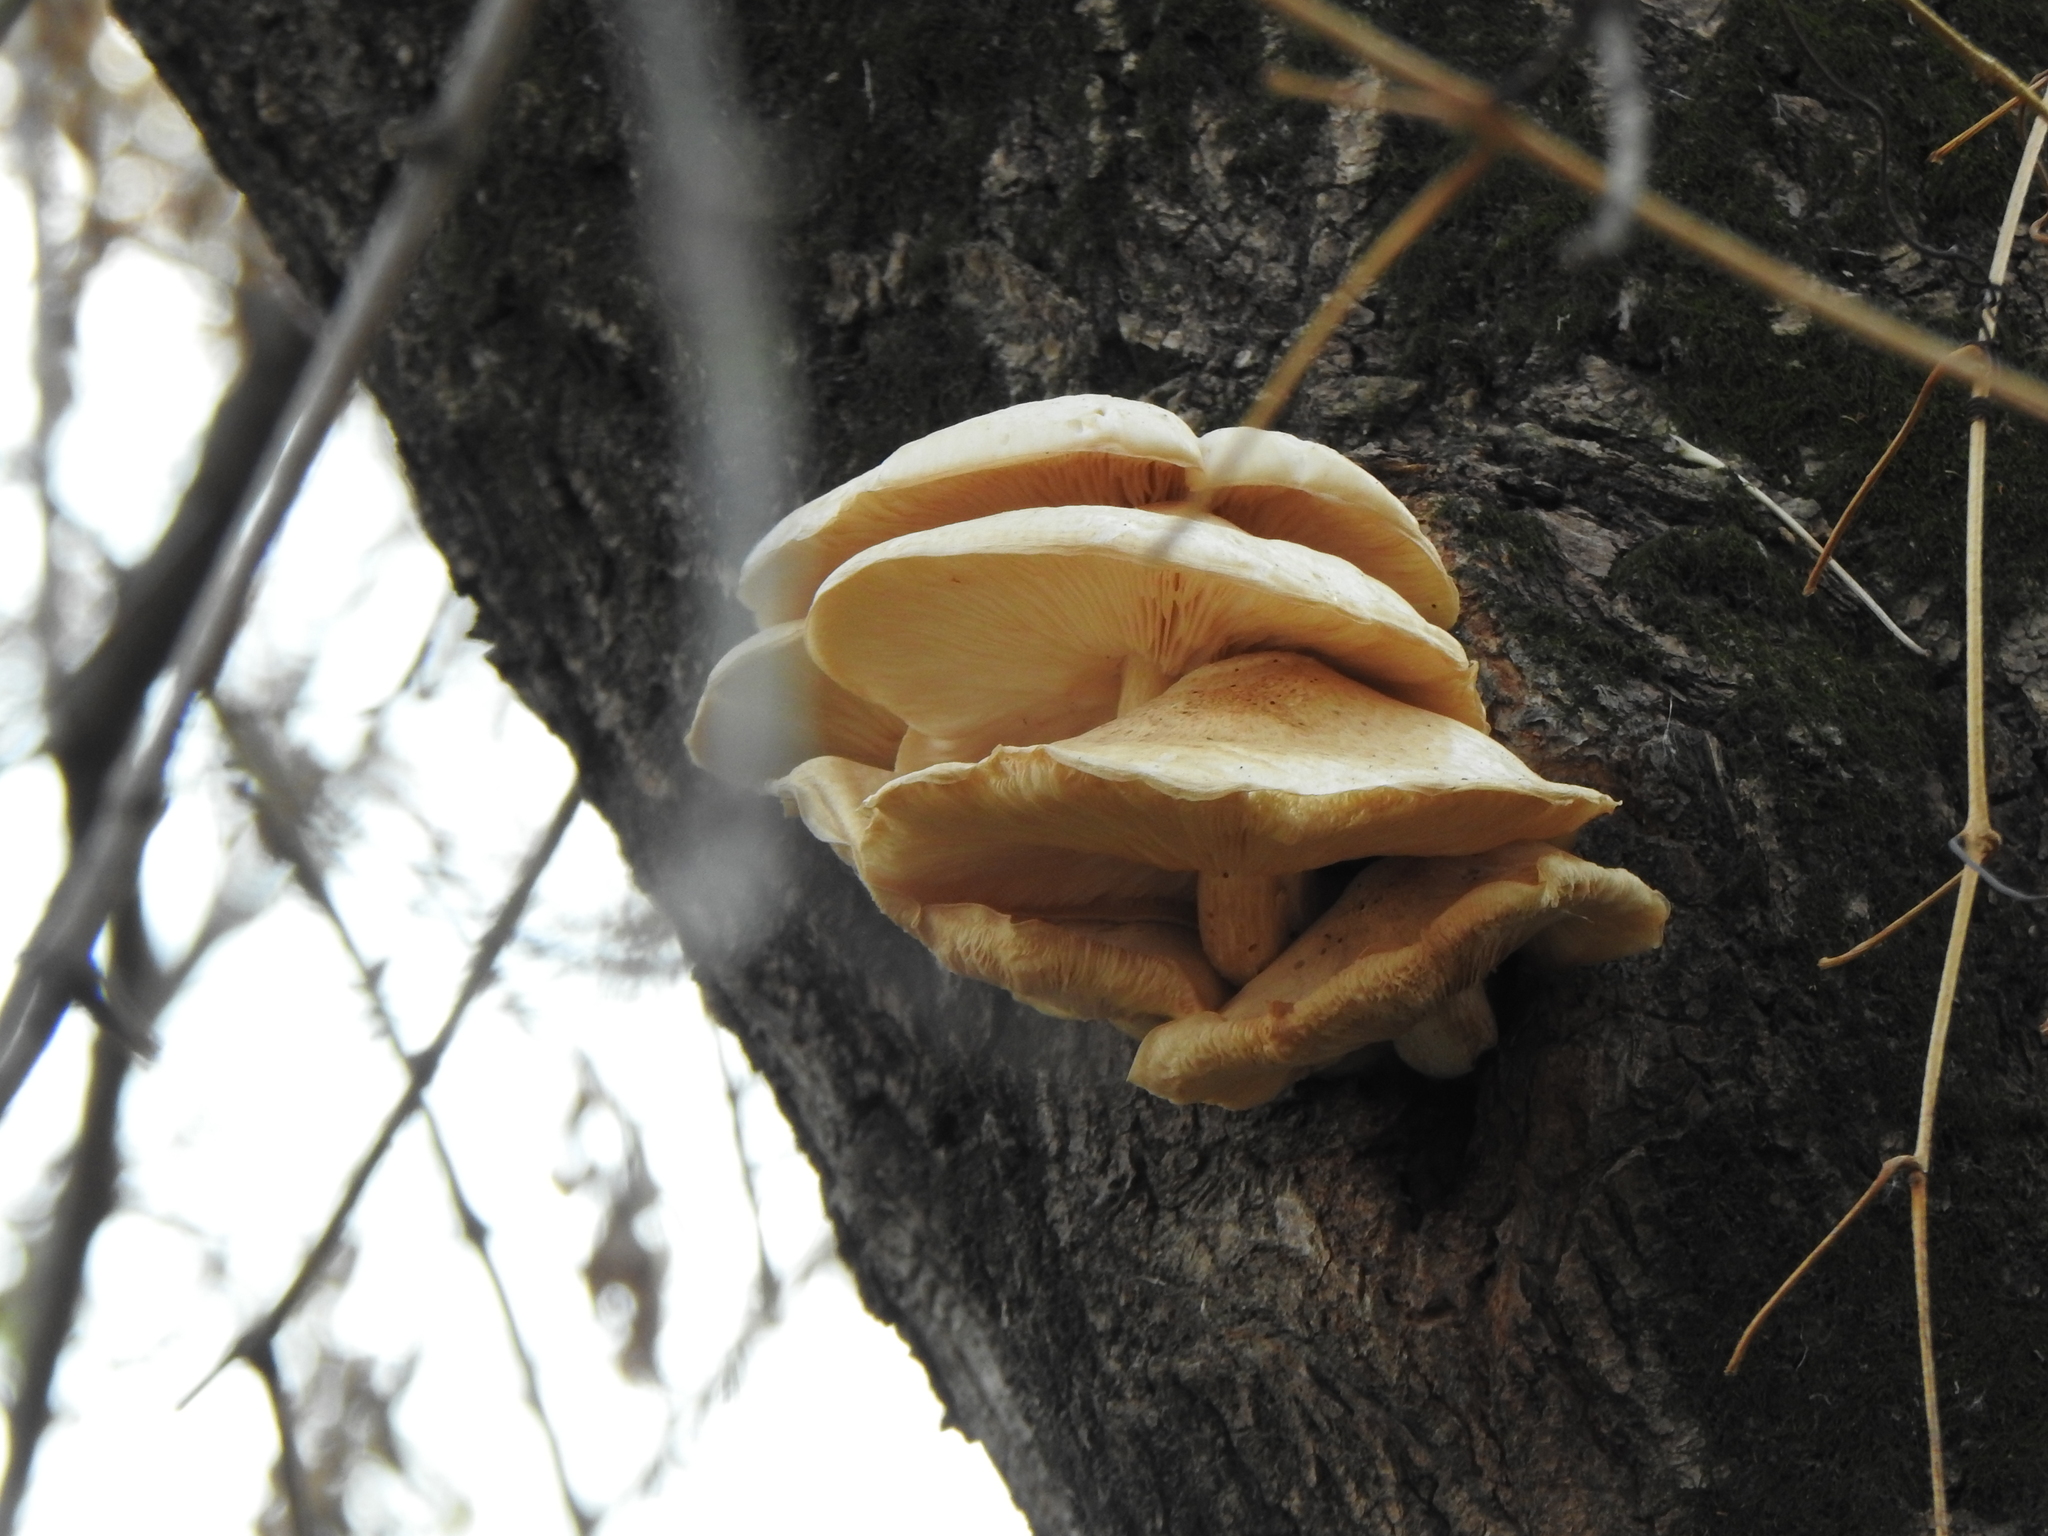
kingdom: Fungi
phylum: Basidiomycota
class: Agaricomycetes
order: Agaricales
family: Lyophyllaceae
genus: Hypsizygus
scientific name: Hypsizygus ulmarius
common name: Elm leech
